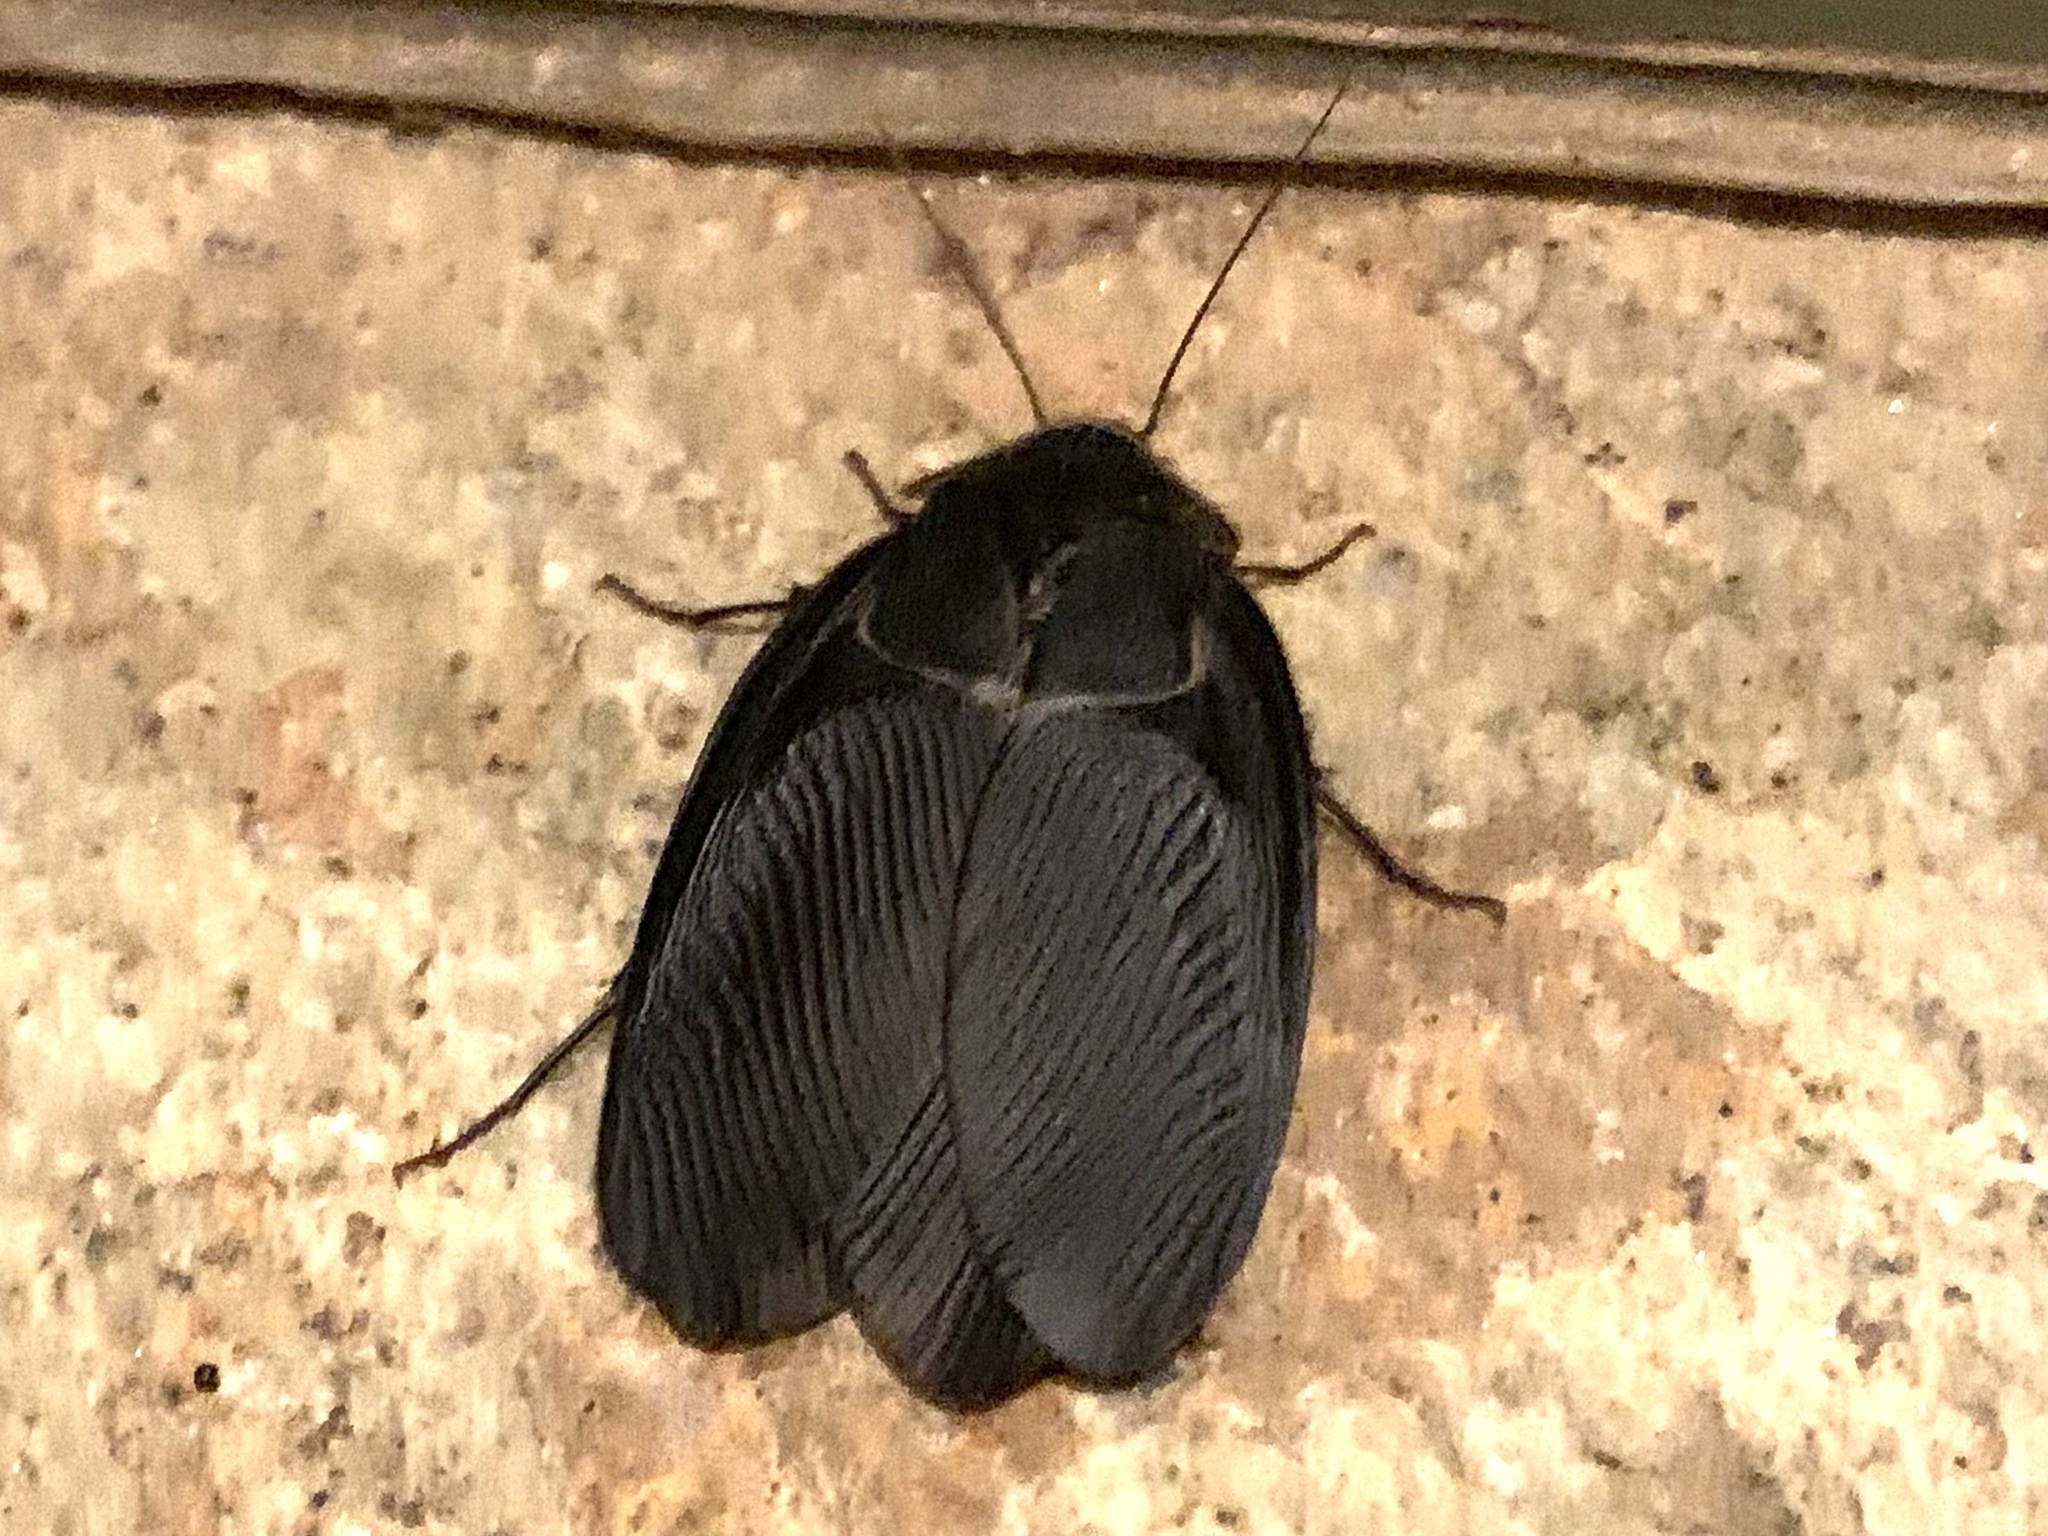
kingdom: Animalia
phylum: Arthropoda
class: Insecta
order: Blattodea
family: Corydiidae
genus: Polyphaga
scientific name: Polyphaga aegyptiaca
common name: Egyptian cockroach
